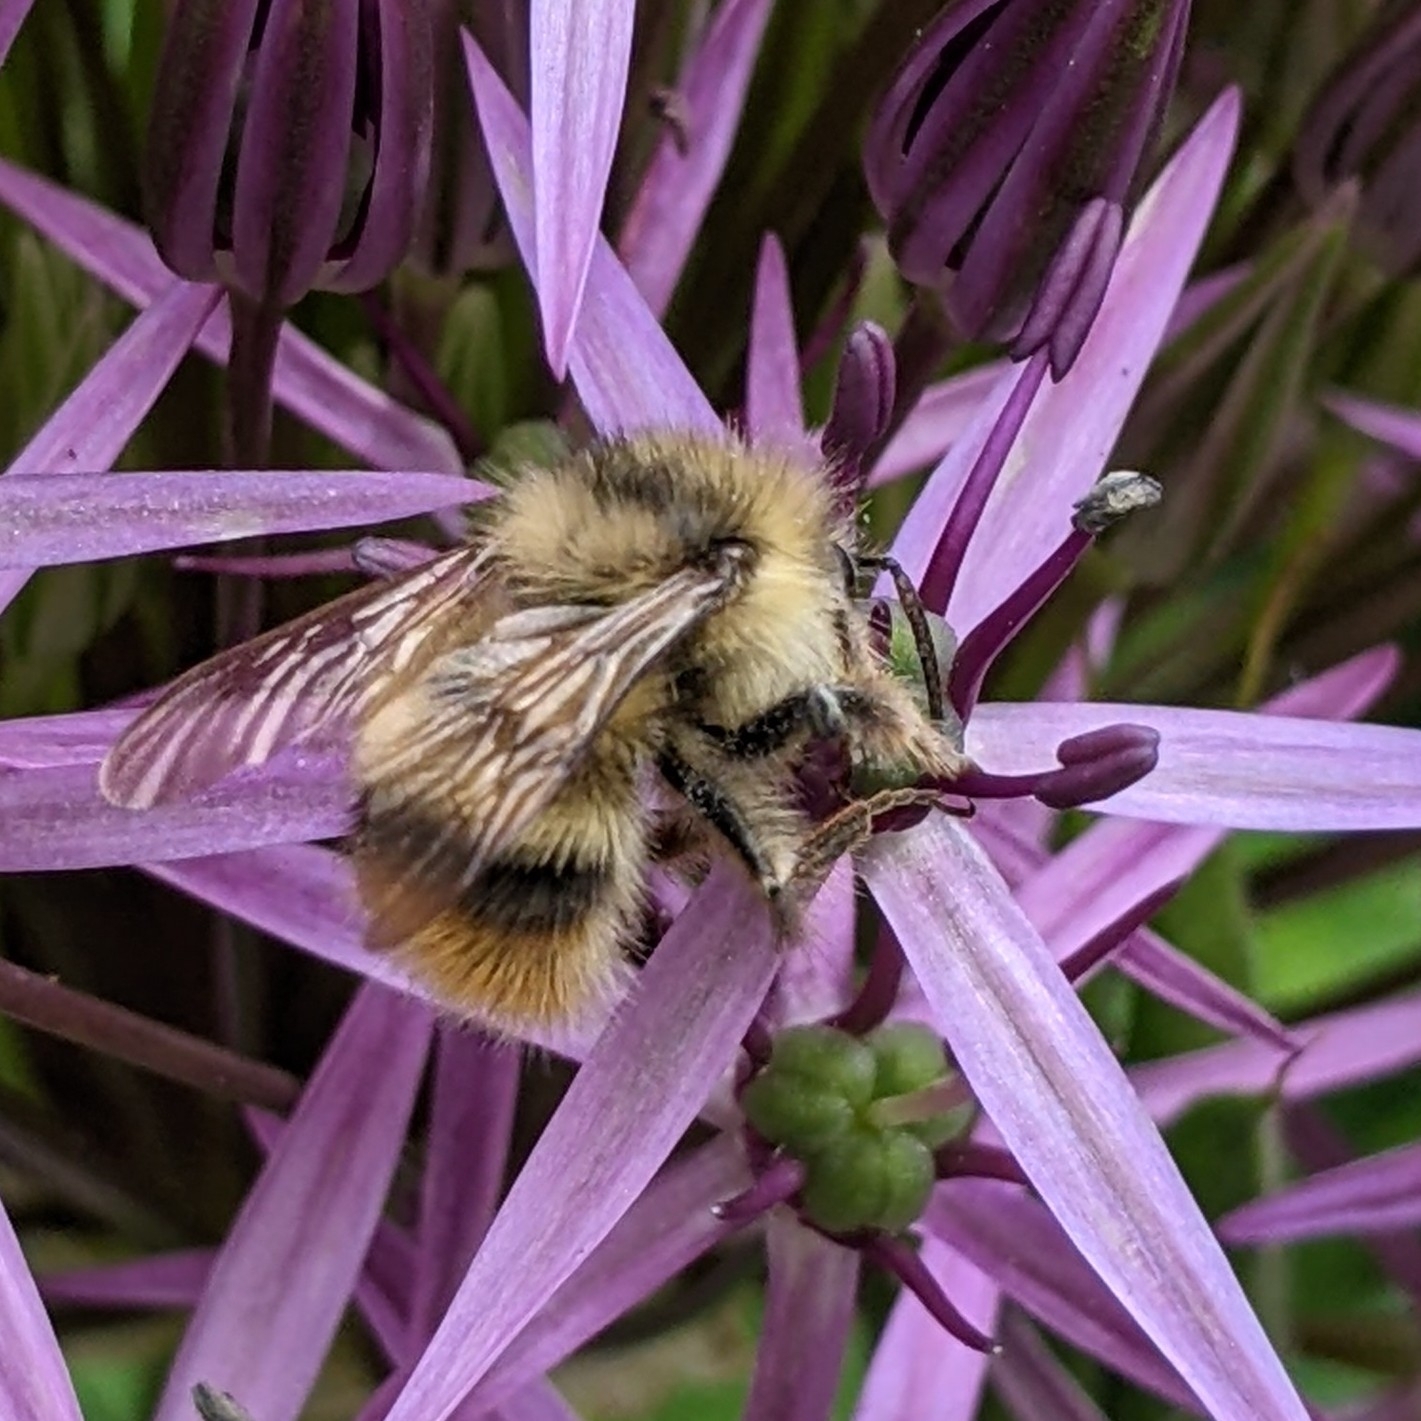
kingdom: Animalia
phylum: Arthropoda
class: Insecta
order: Hymenoptera
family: Apidae
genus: Bombus
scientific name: Bombus mixtus
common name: Fuzzy-horned bumble bee
